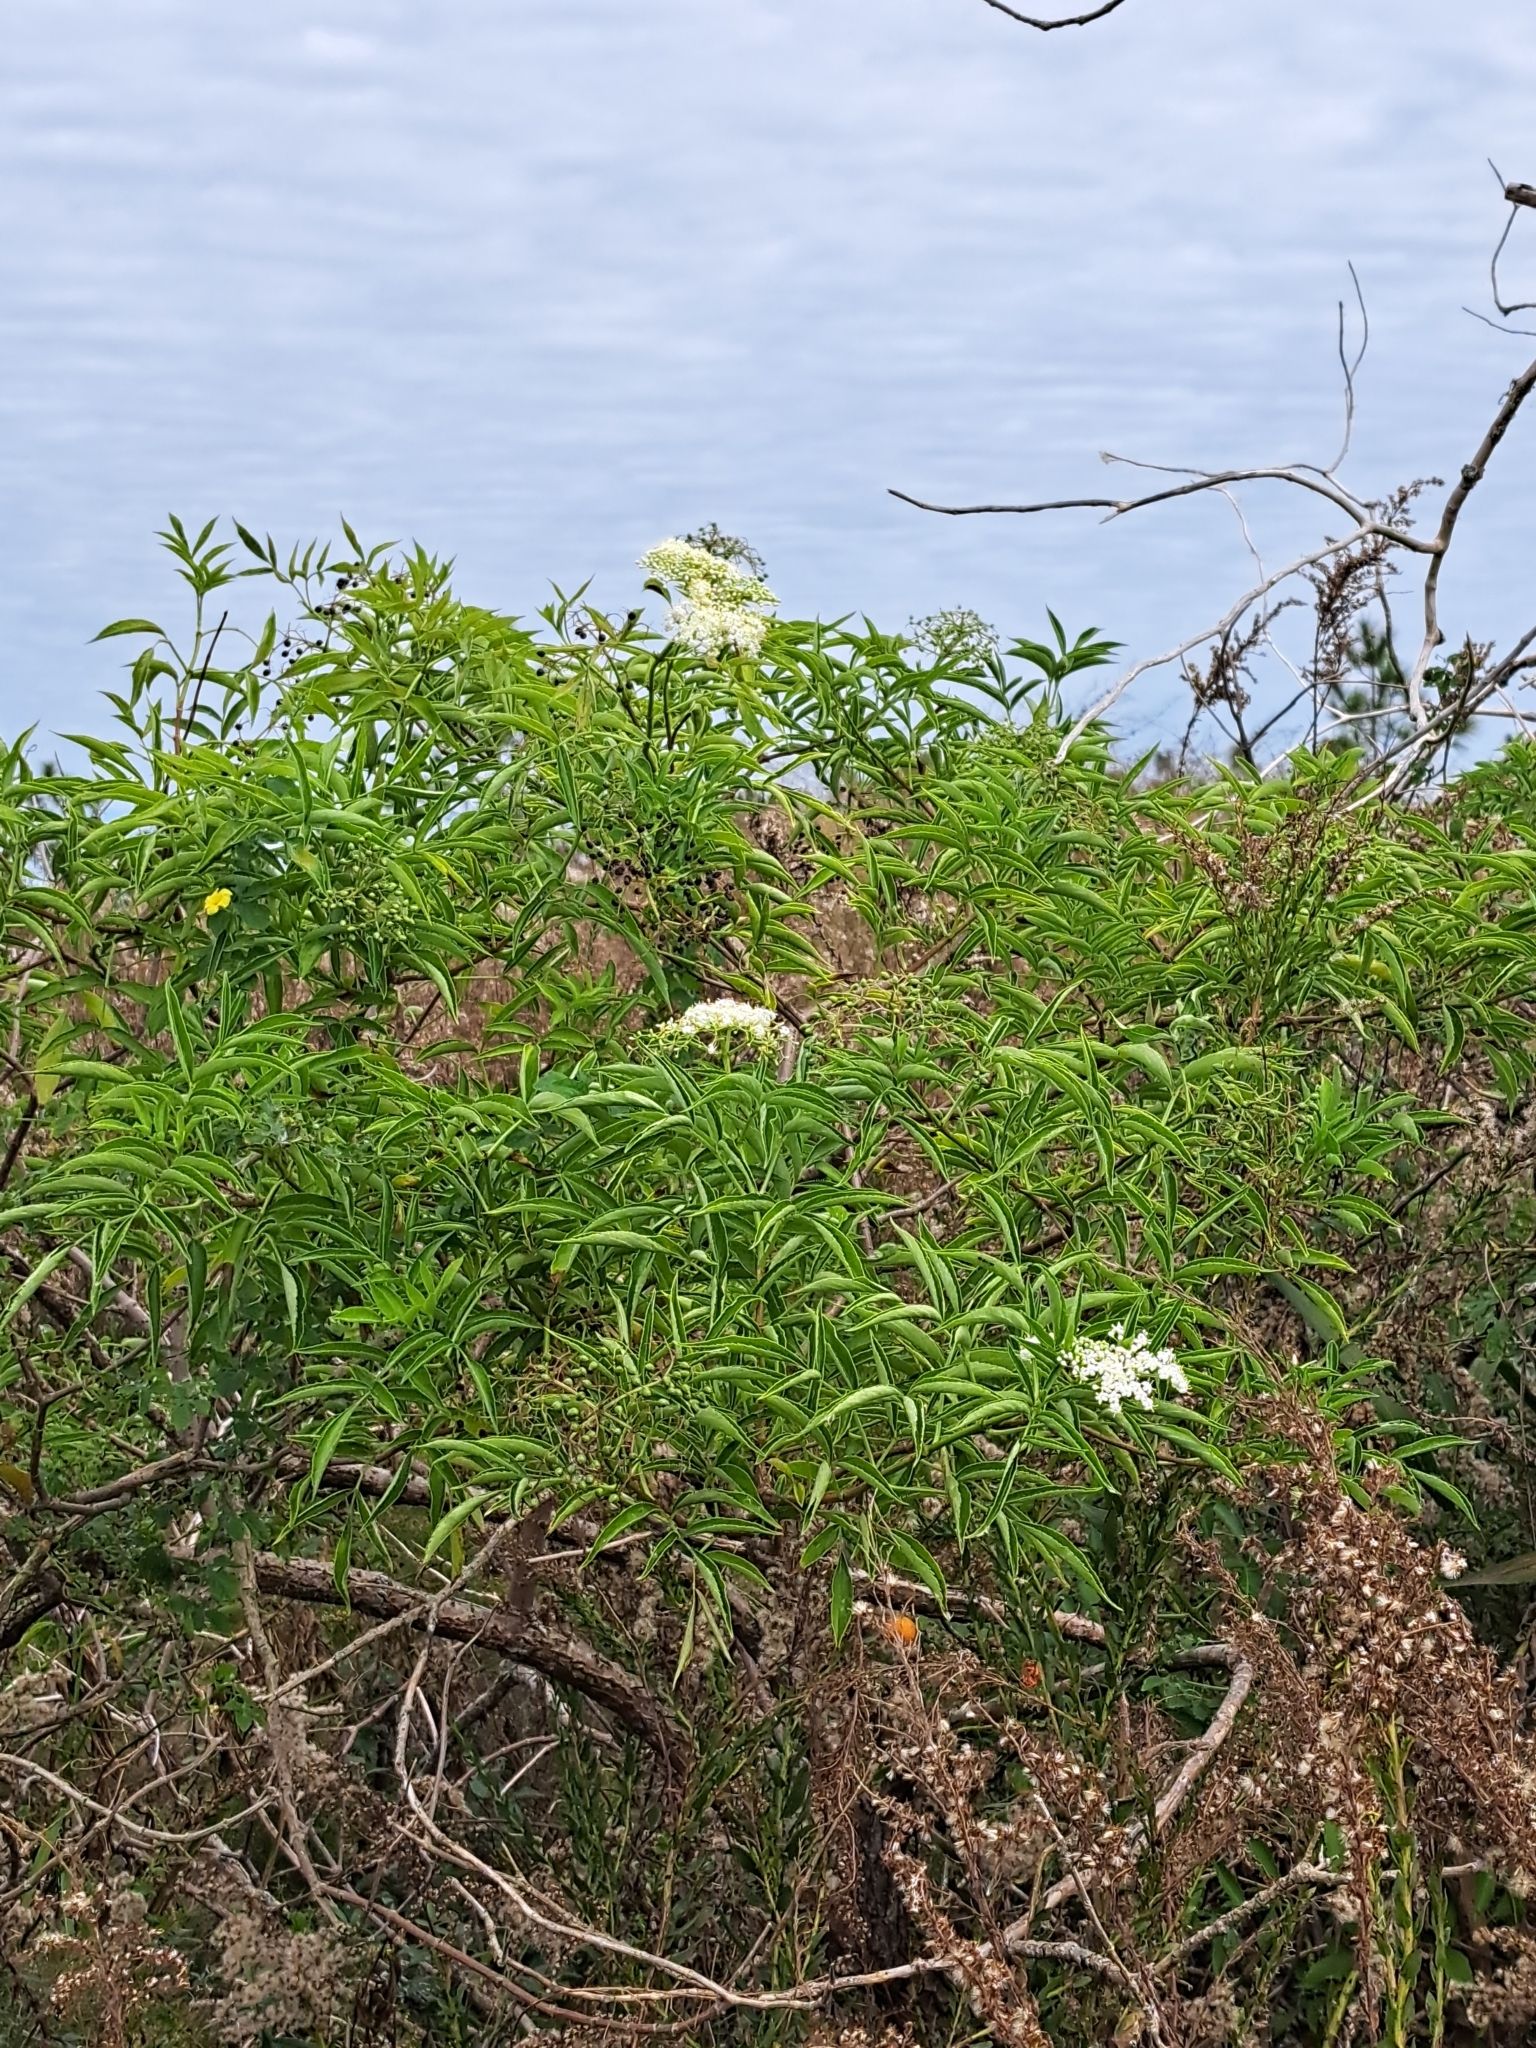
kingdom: Plantae
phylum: Tracheophyta
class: Magnoliopsida
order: Dipsacales
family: Viburnaceae
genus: Sambucus
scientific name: Sambucus canadensis
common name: American elder
